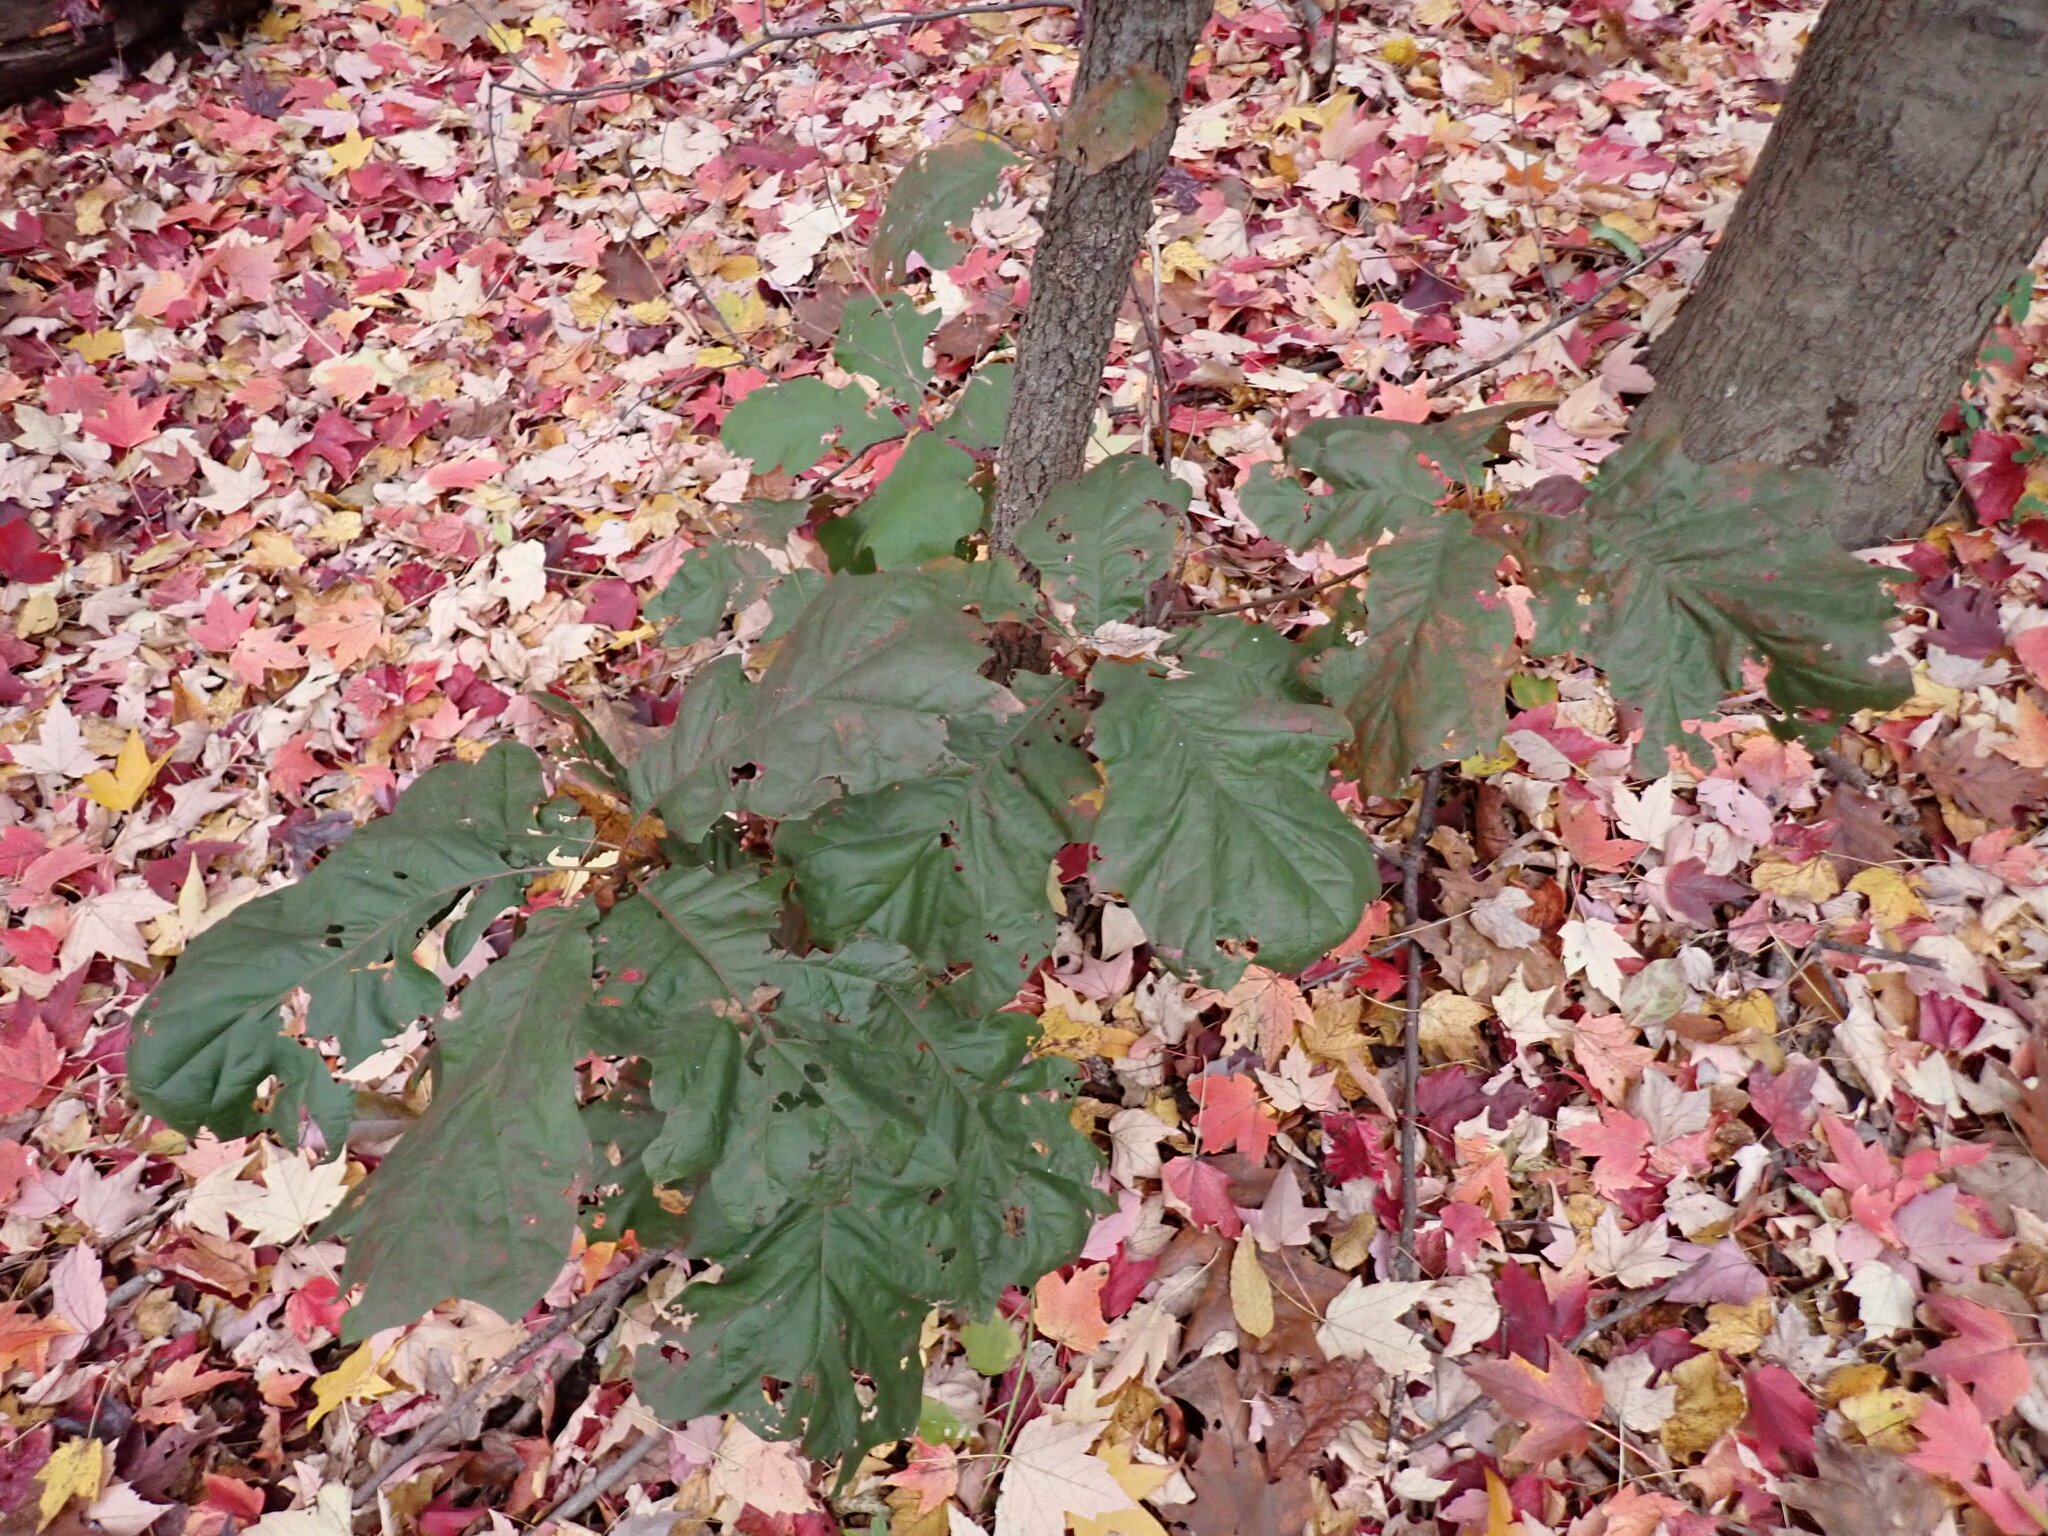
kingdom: Plantae
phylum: Tracheophyta
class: Magnoliopsida
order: Fagales
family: Fagaceae
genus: Quercus
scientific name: Quercus velutina
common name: Black oak
